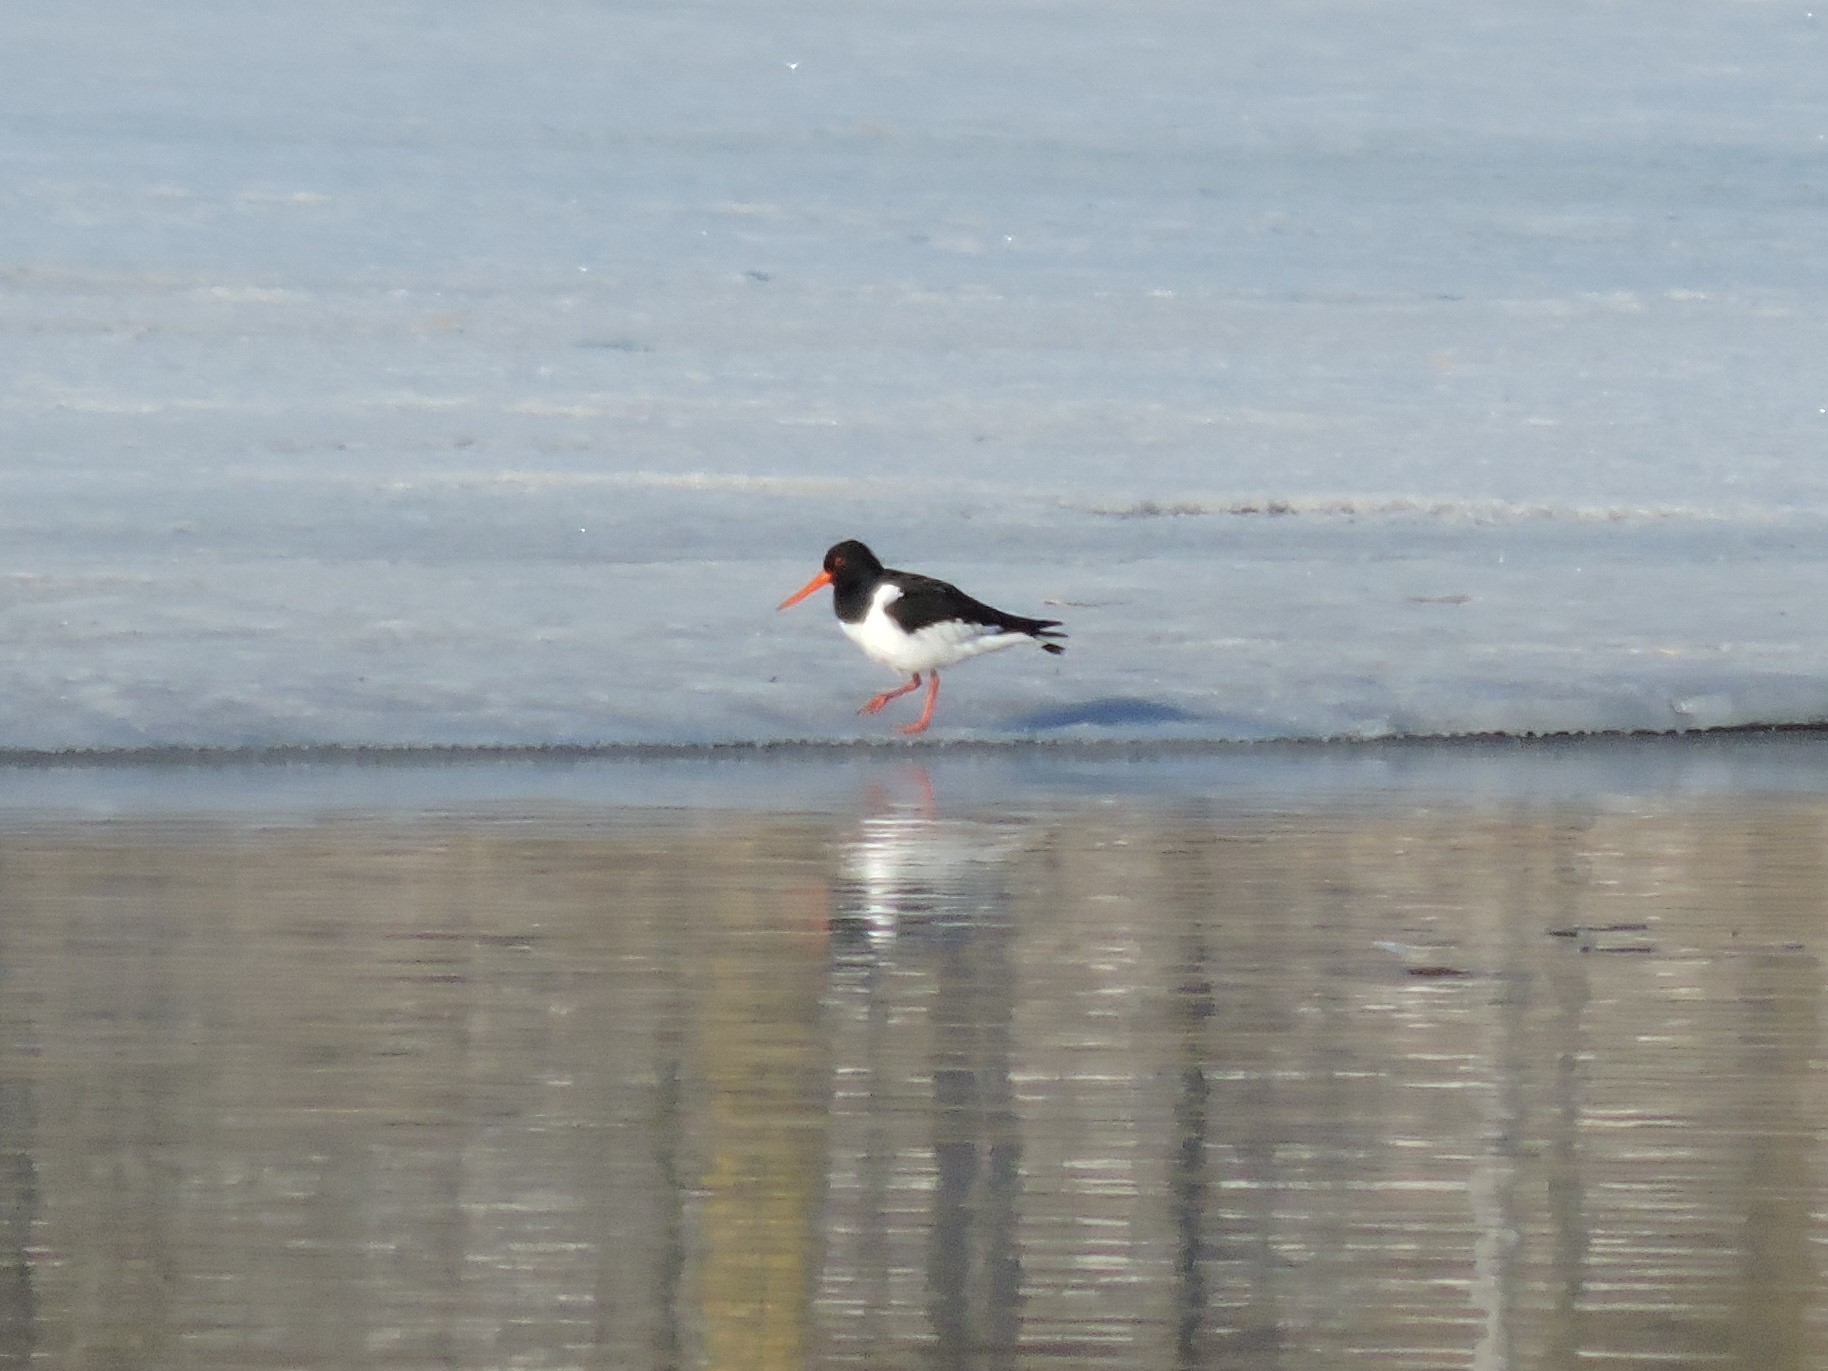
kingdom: Animalia
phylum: Chordata
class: Aves
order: Charadriiformes
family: Haematopodidae
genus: Haematopus
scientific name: Haematopus ostralegus
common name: Eurasian oystercatcher
